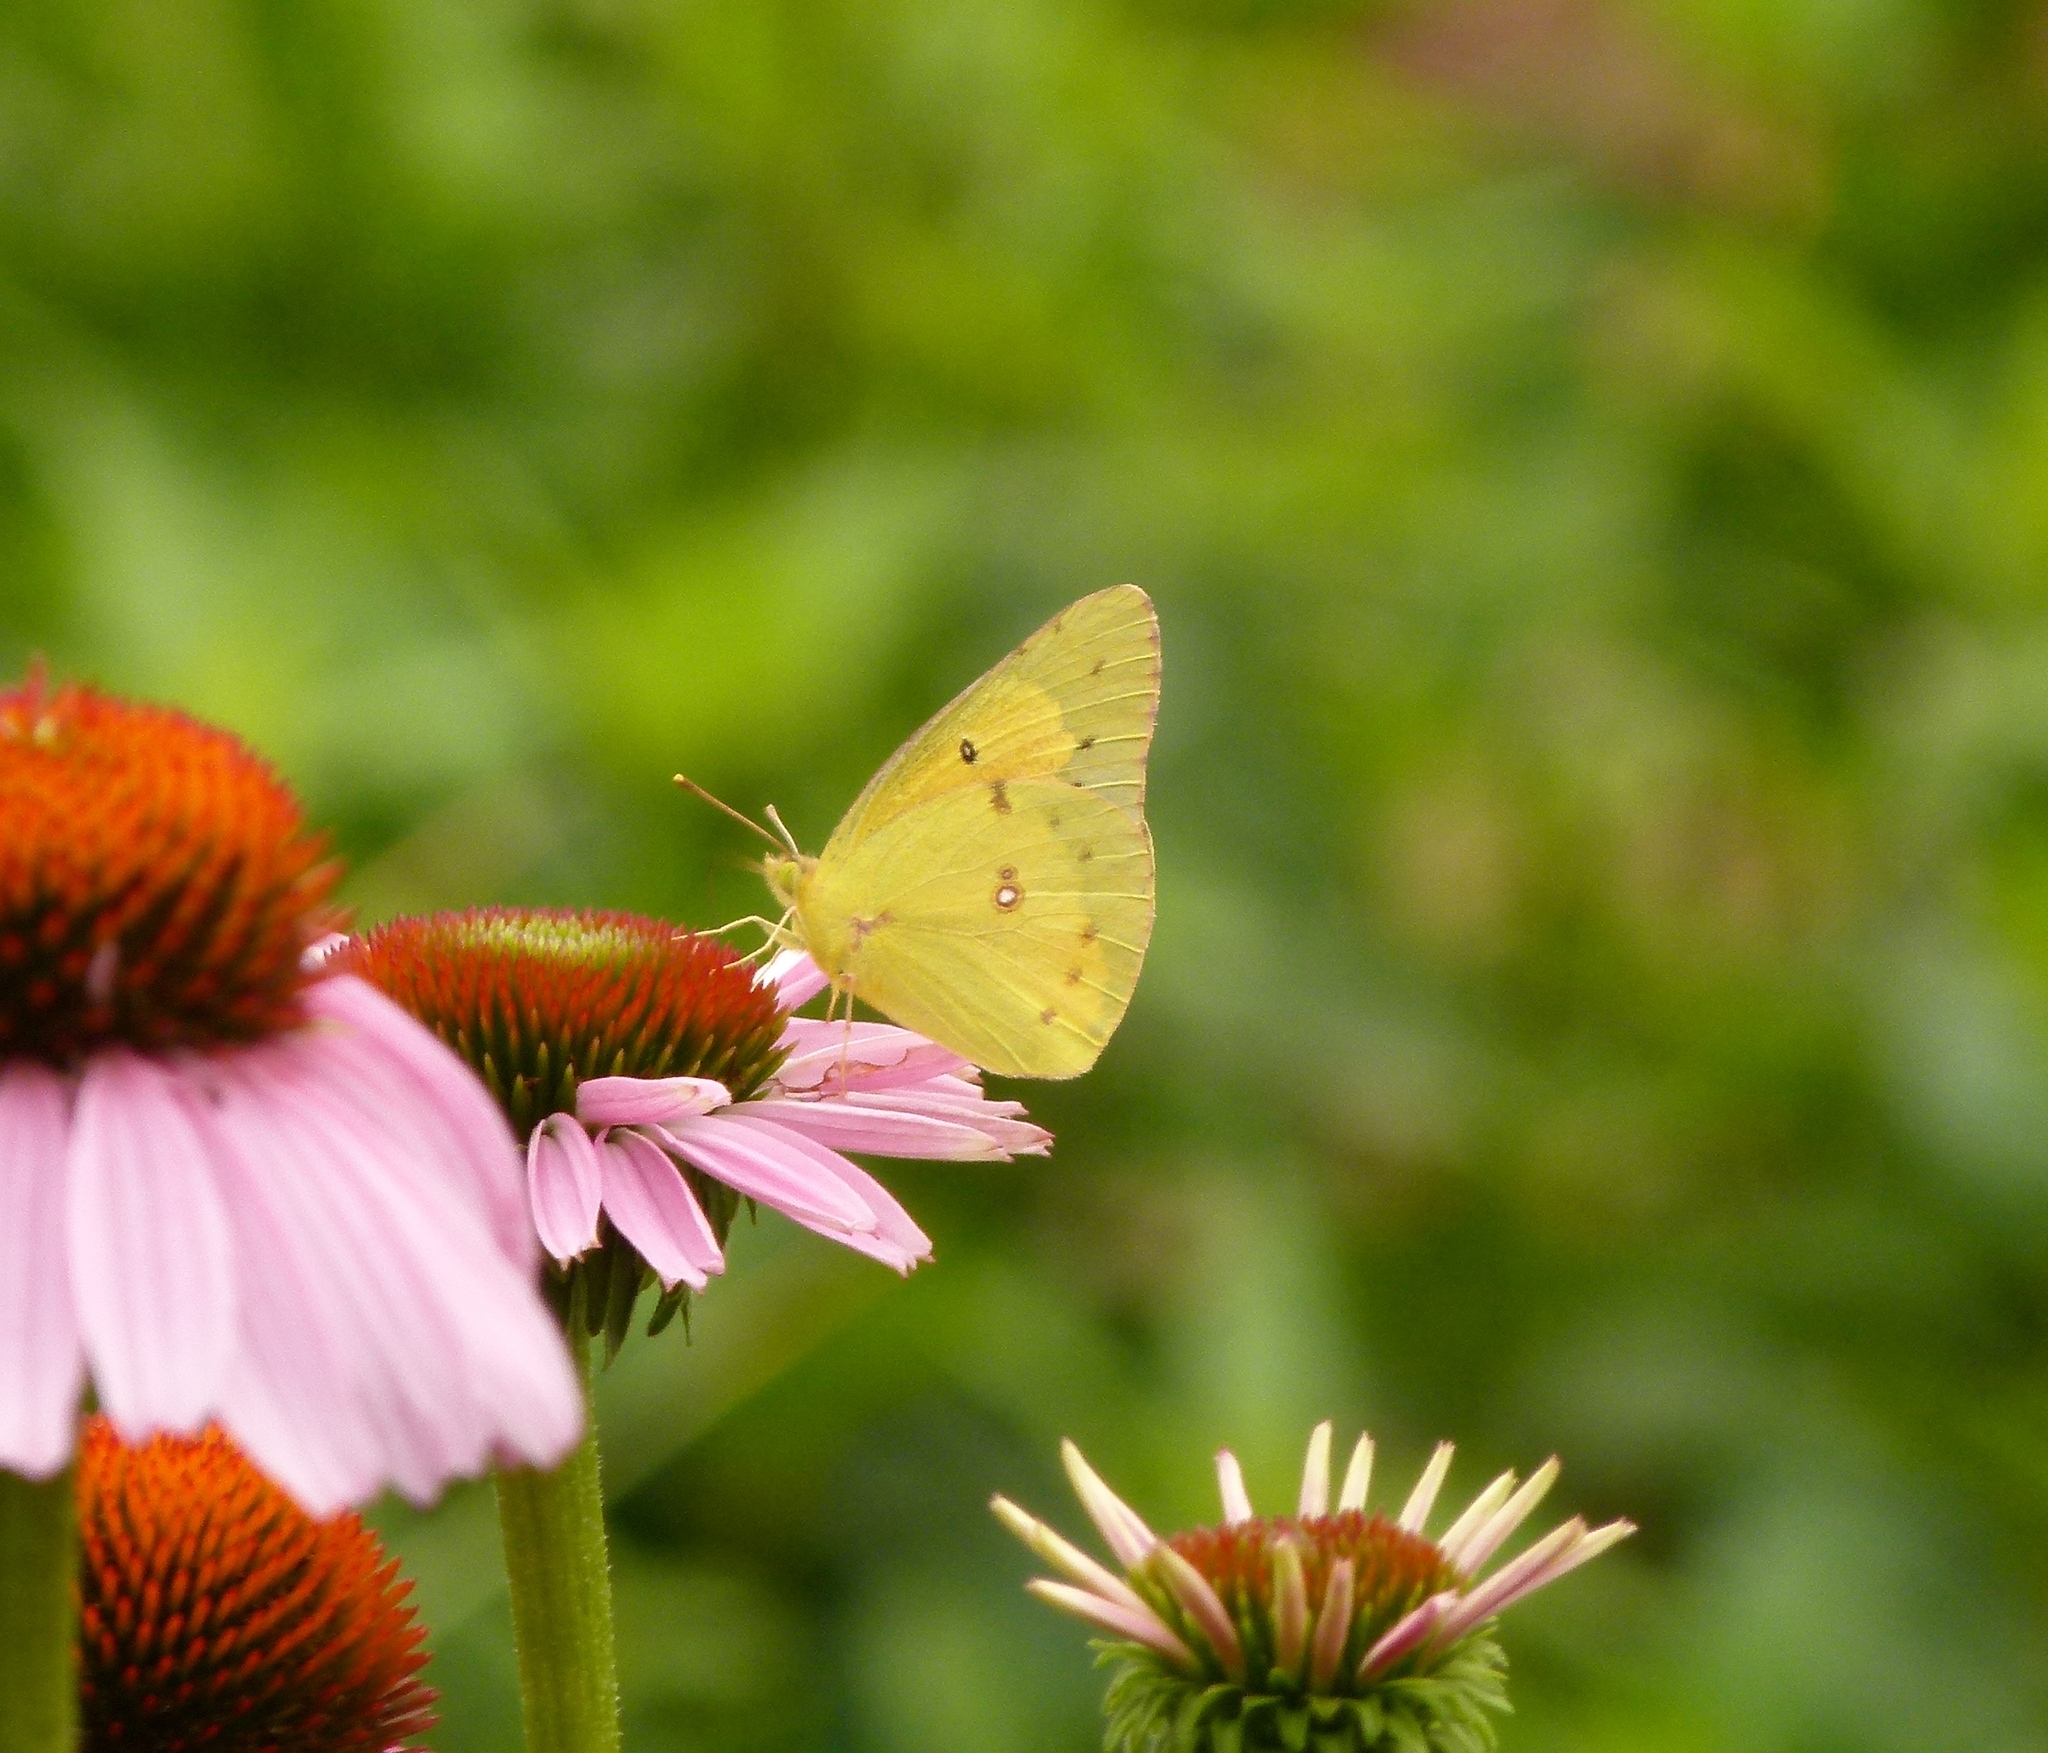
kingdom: Animalia
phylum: Arthropoda
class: Insecta
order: Lepidoptera
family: Pieridae
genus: Colias
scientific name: Colias eurytheme
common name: Alfalfa butterfly
